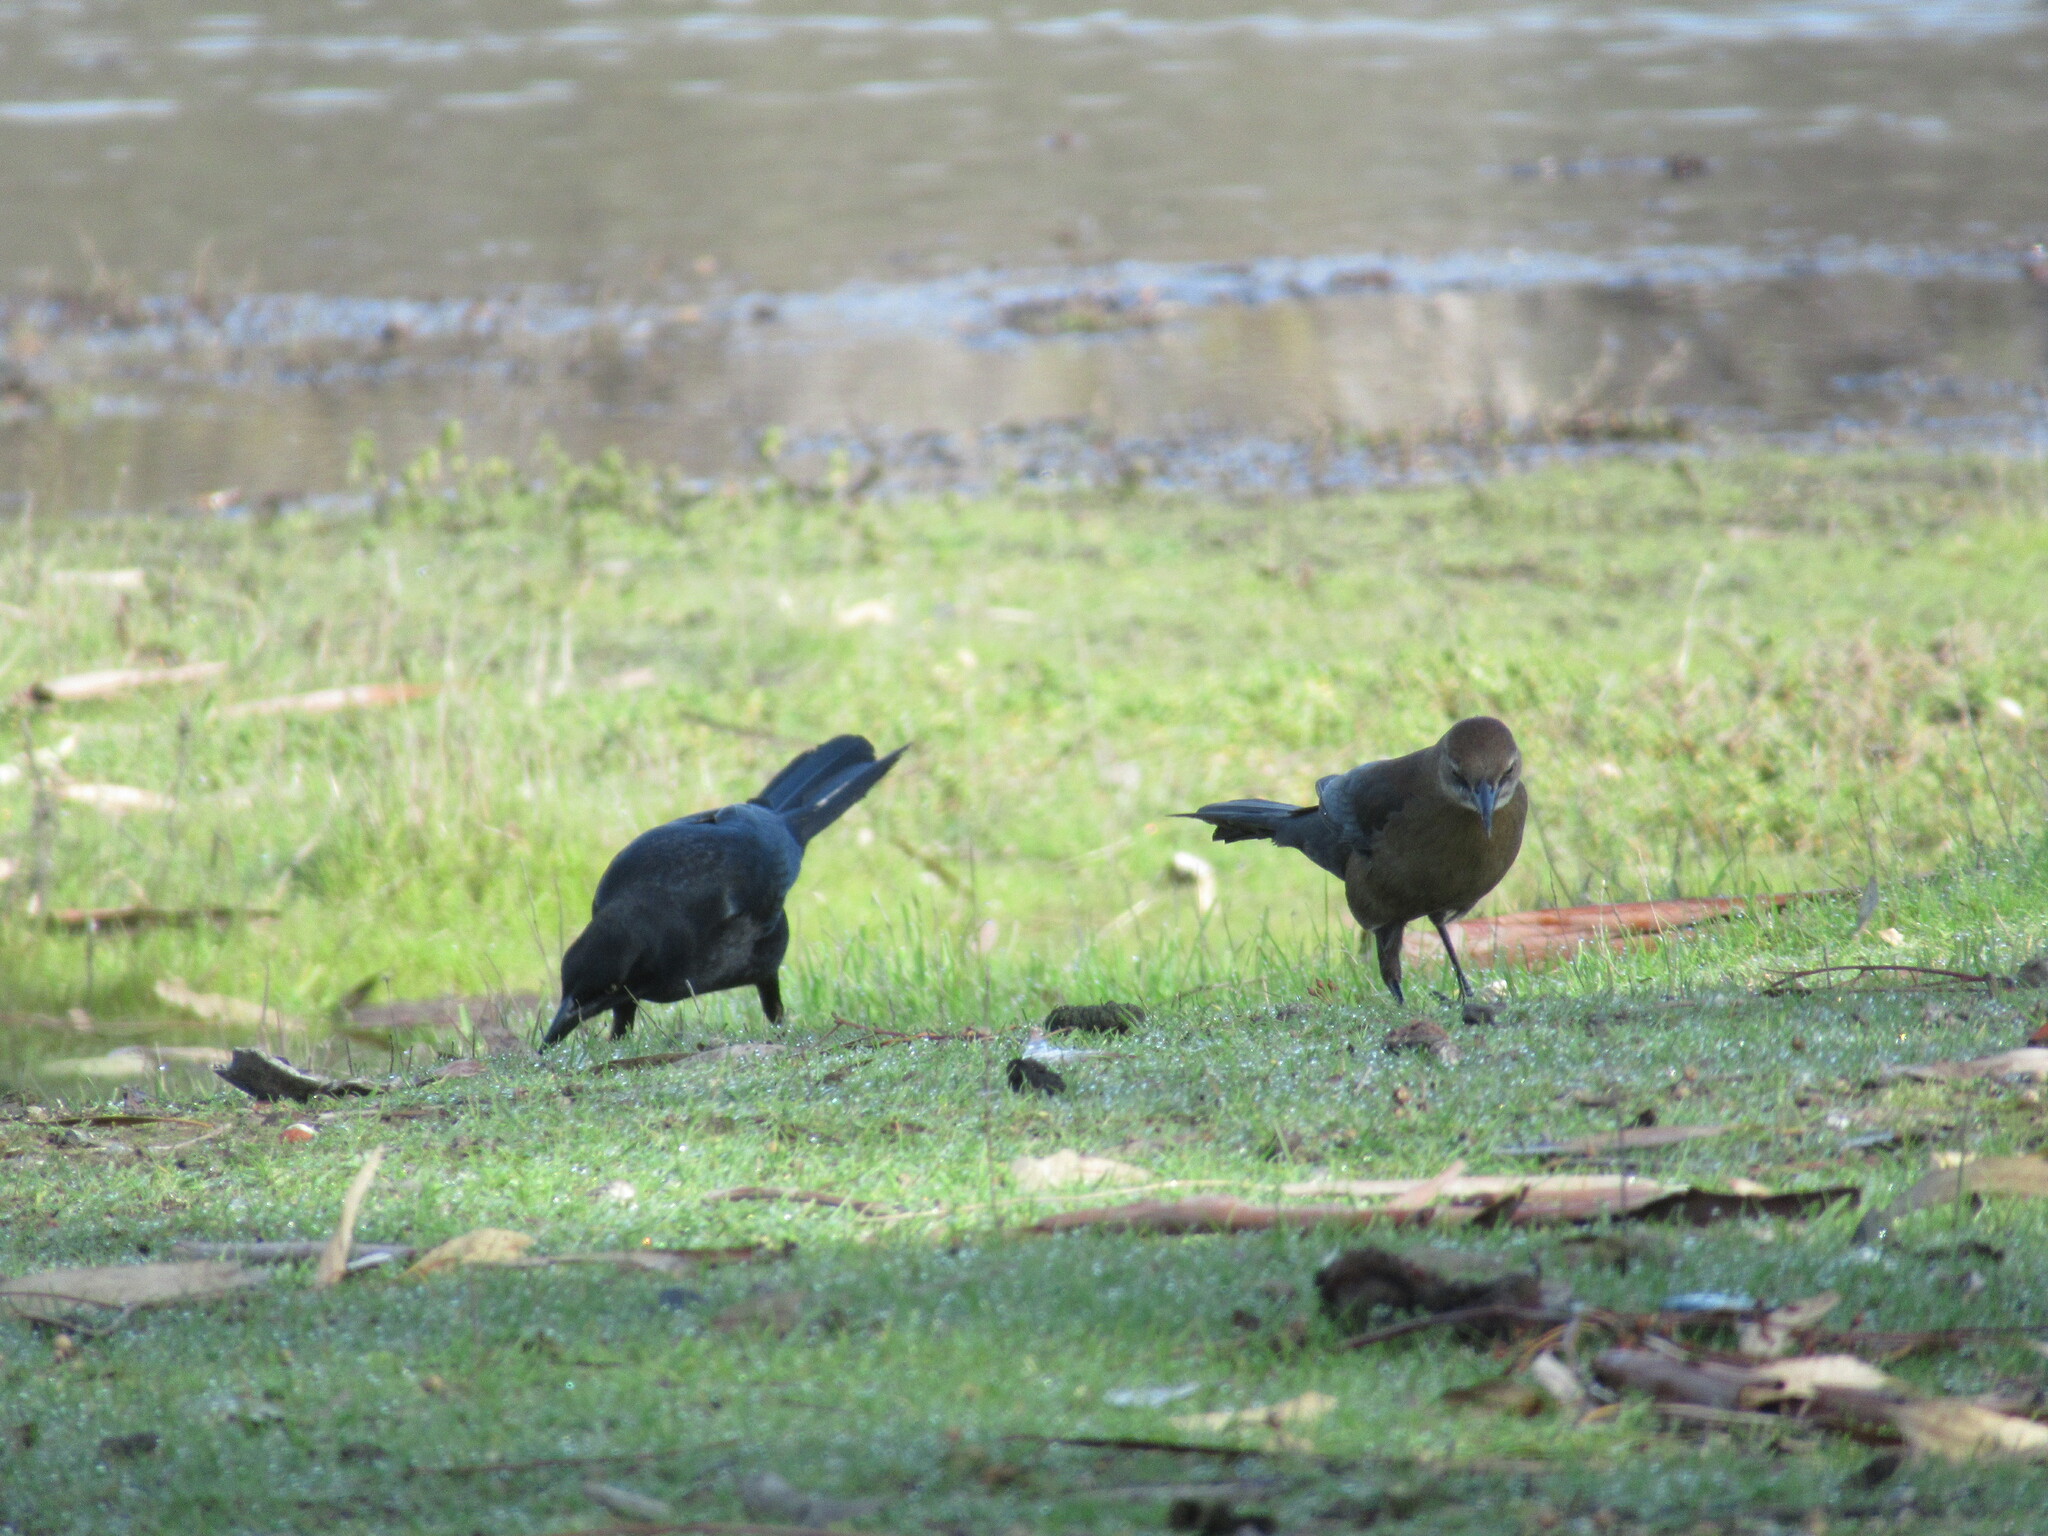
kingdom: Animalia
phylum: Chordata
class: Aves
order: Passeriformes
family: Icteridae
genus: Quiscalus
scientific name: Quiscalus mexicanus
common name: Great-tailed grackle
